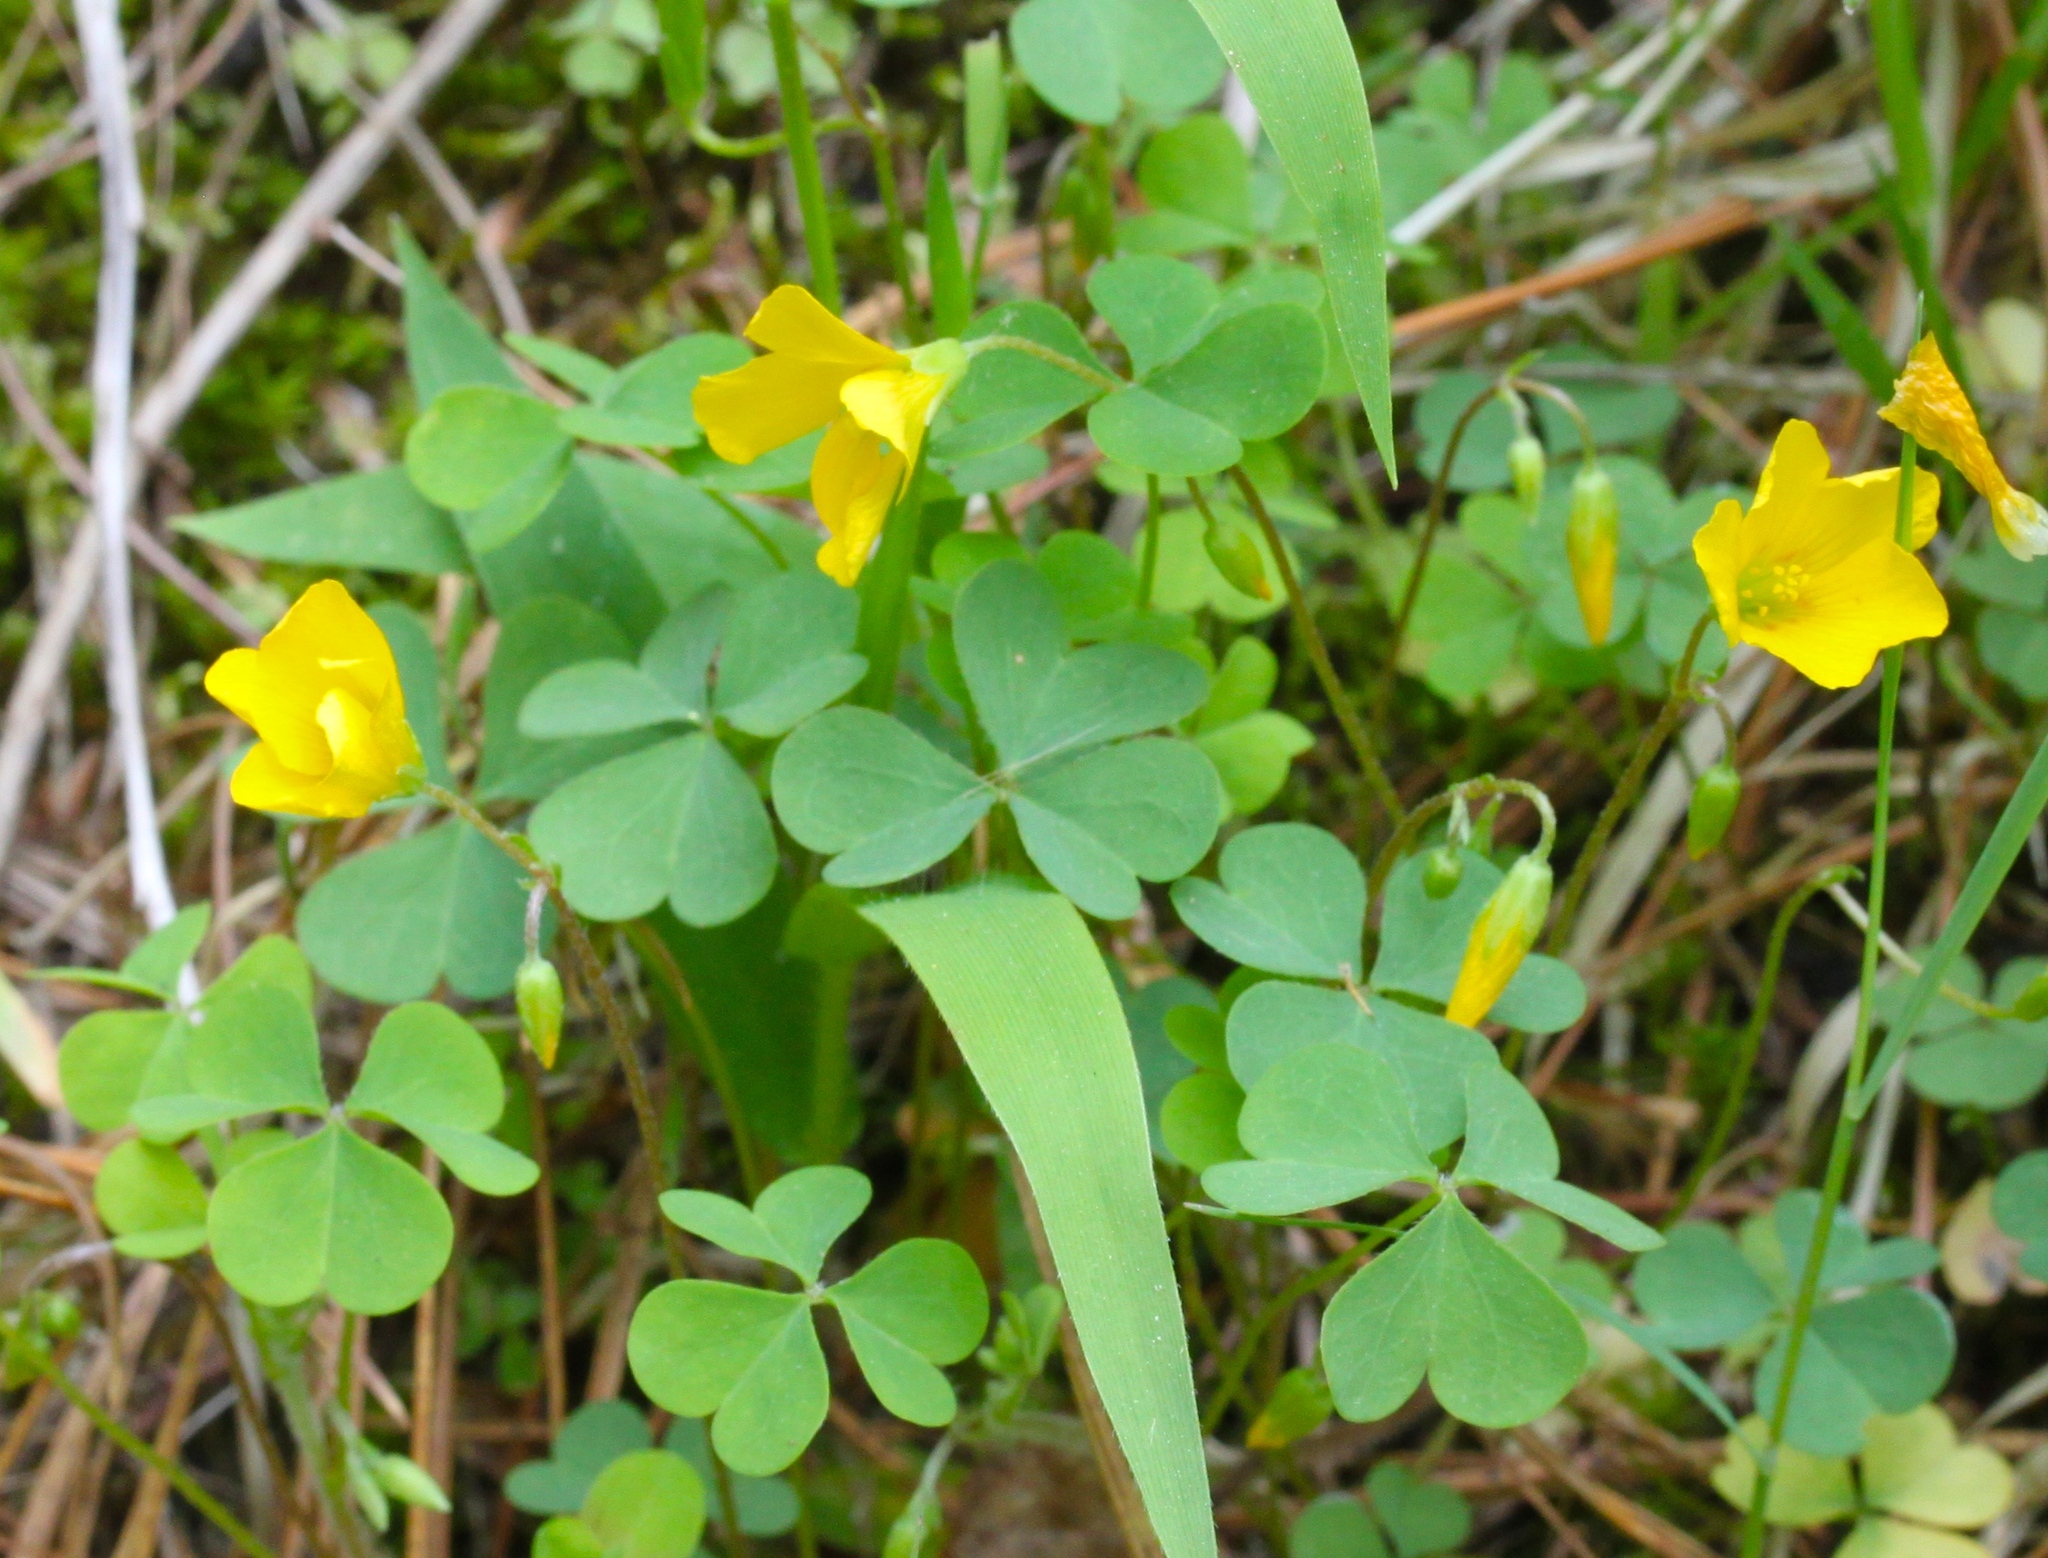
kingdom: Plantae
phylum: Tracheophyta
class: Magnoliopsida
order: Oxalidales
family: Oxalidaceae
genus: Oxalis
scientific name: Oxalis
